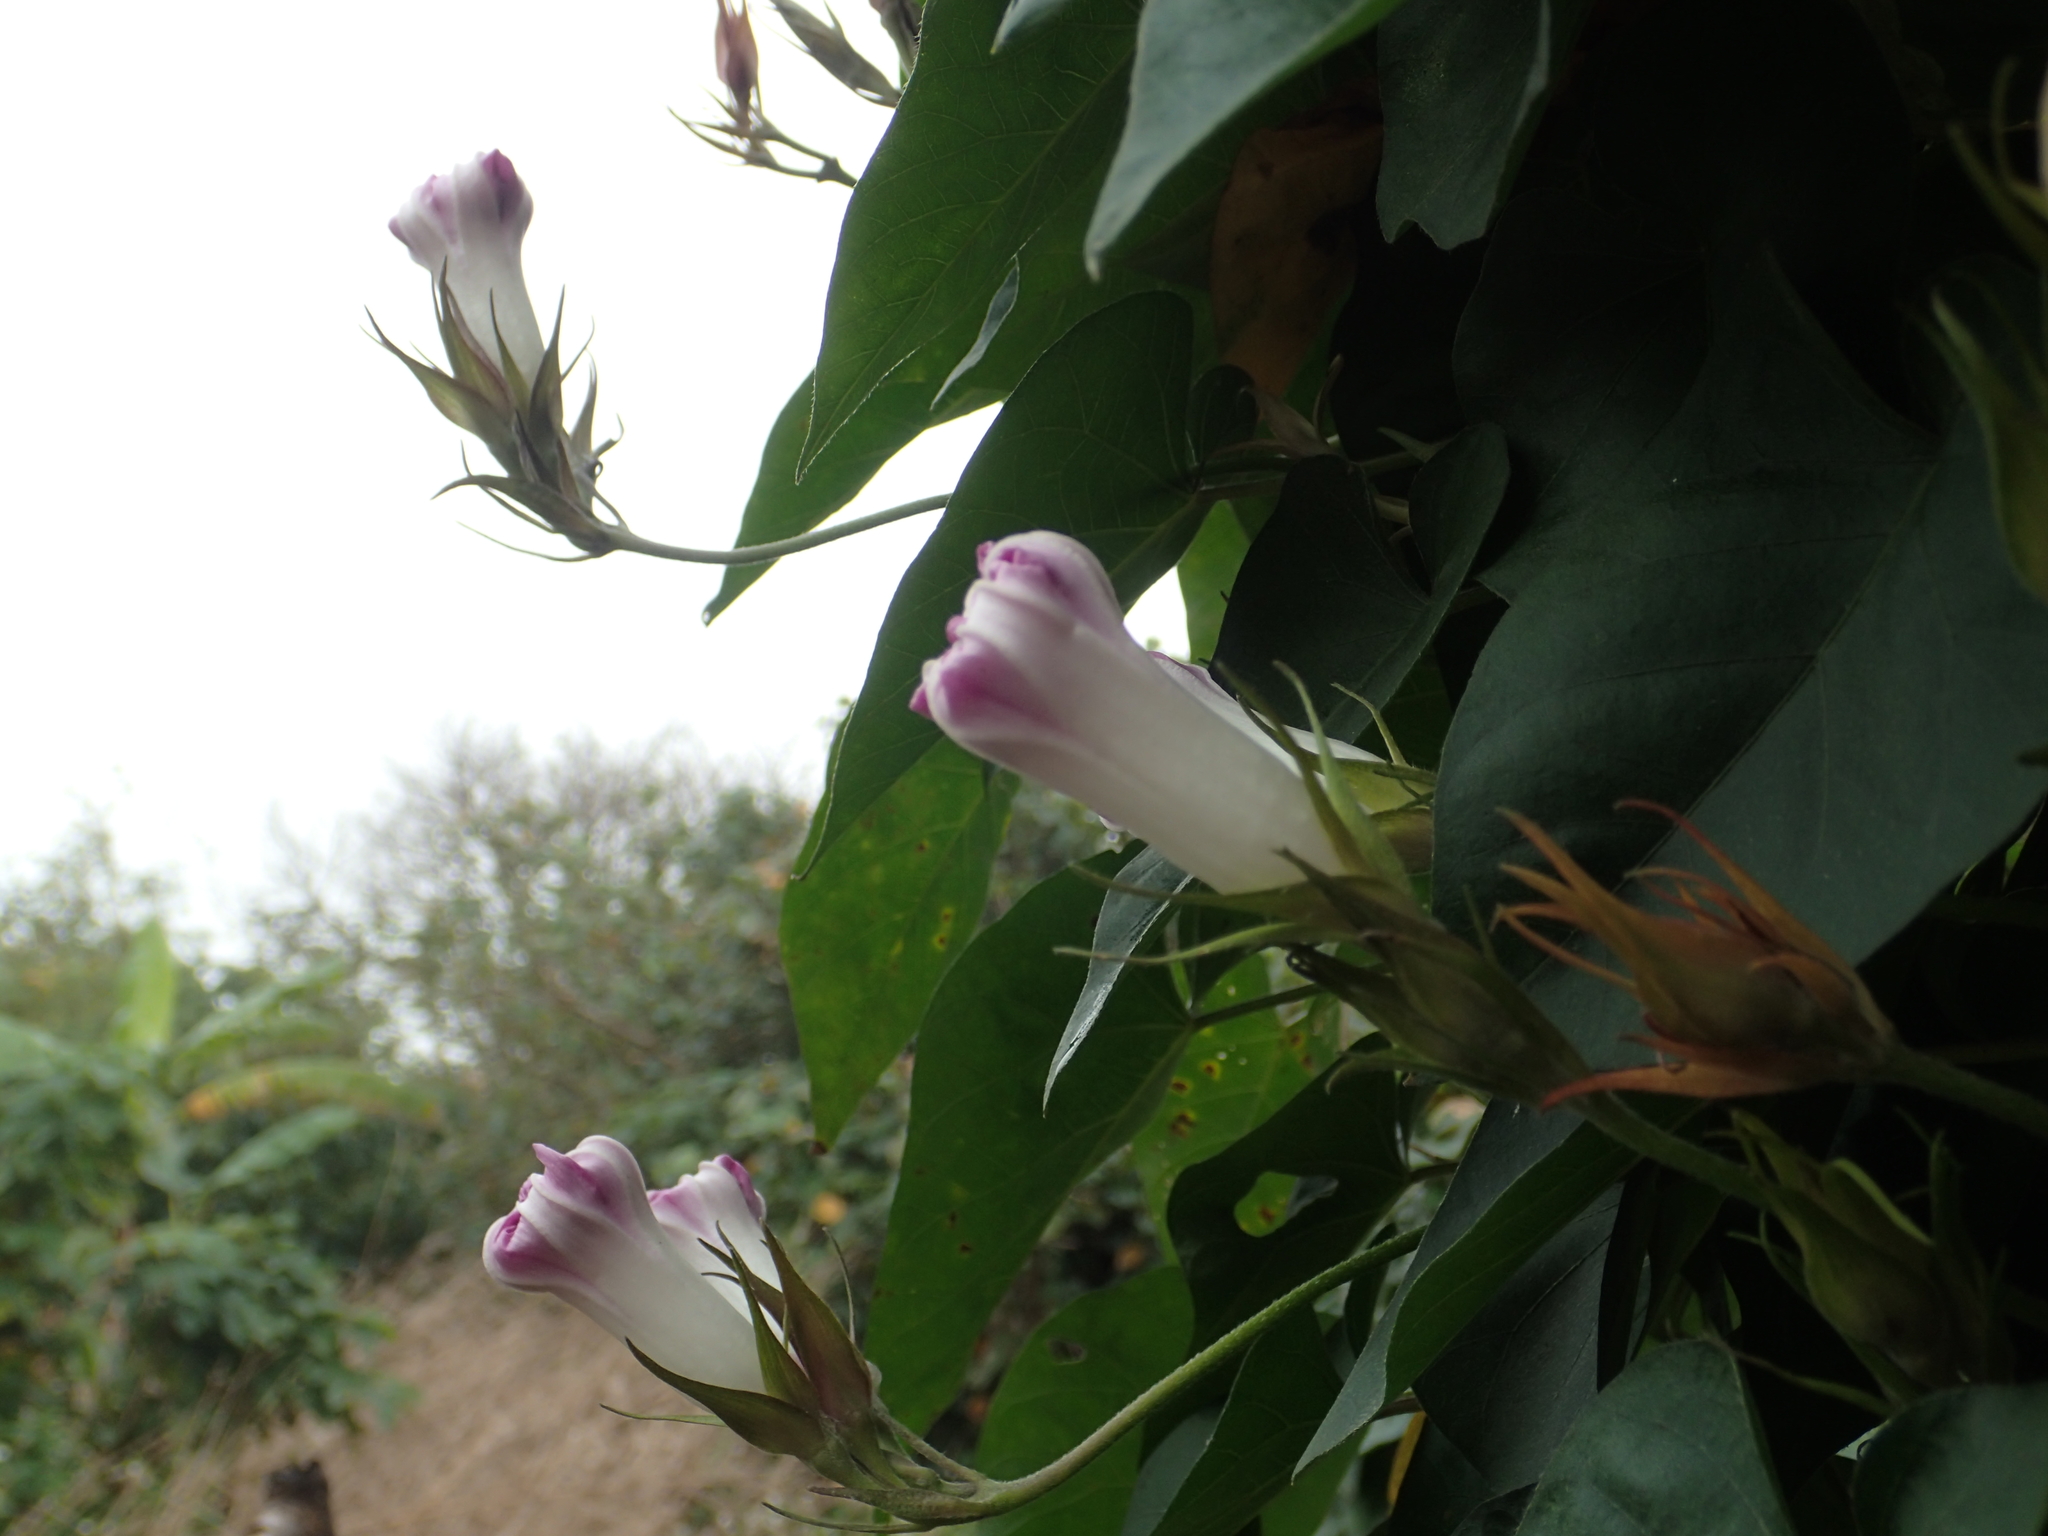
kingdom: Plantae
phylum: Tracheophyta
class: Magnoliopsida
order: Solanales
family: Convolvulaceae
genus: Ipomoea
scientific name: Ipomoea indica
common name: Blue dawnflower
